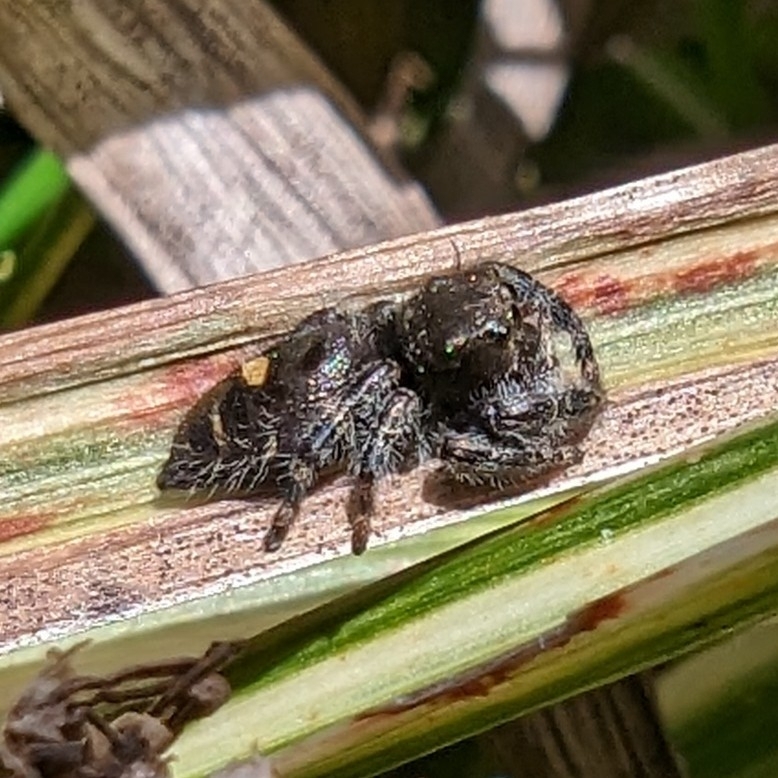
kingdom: Animalia
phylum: Arthropoda
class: Arachnida
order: Araneae
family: Salticidae
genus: Phidippus
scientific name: Phidippus audax
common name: Bold jumper
